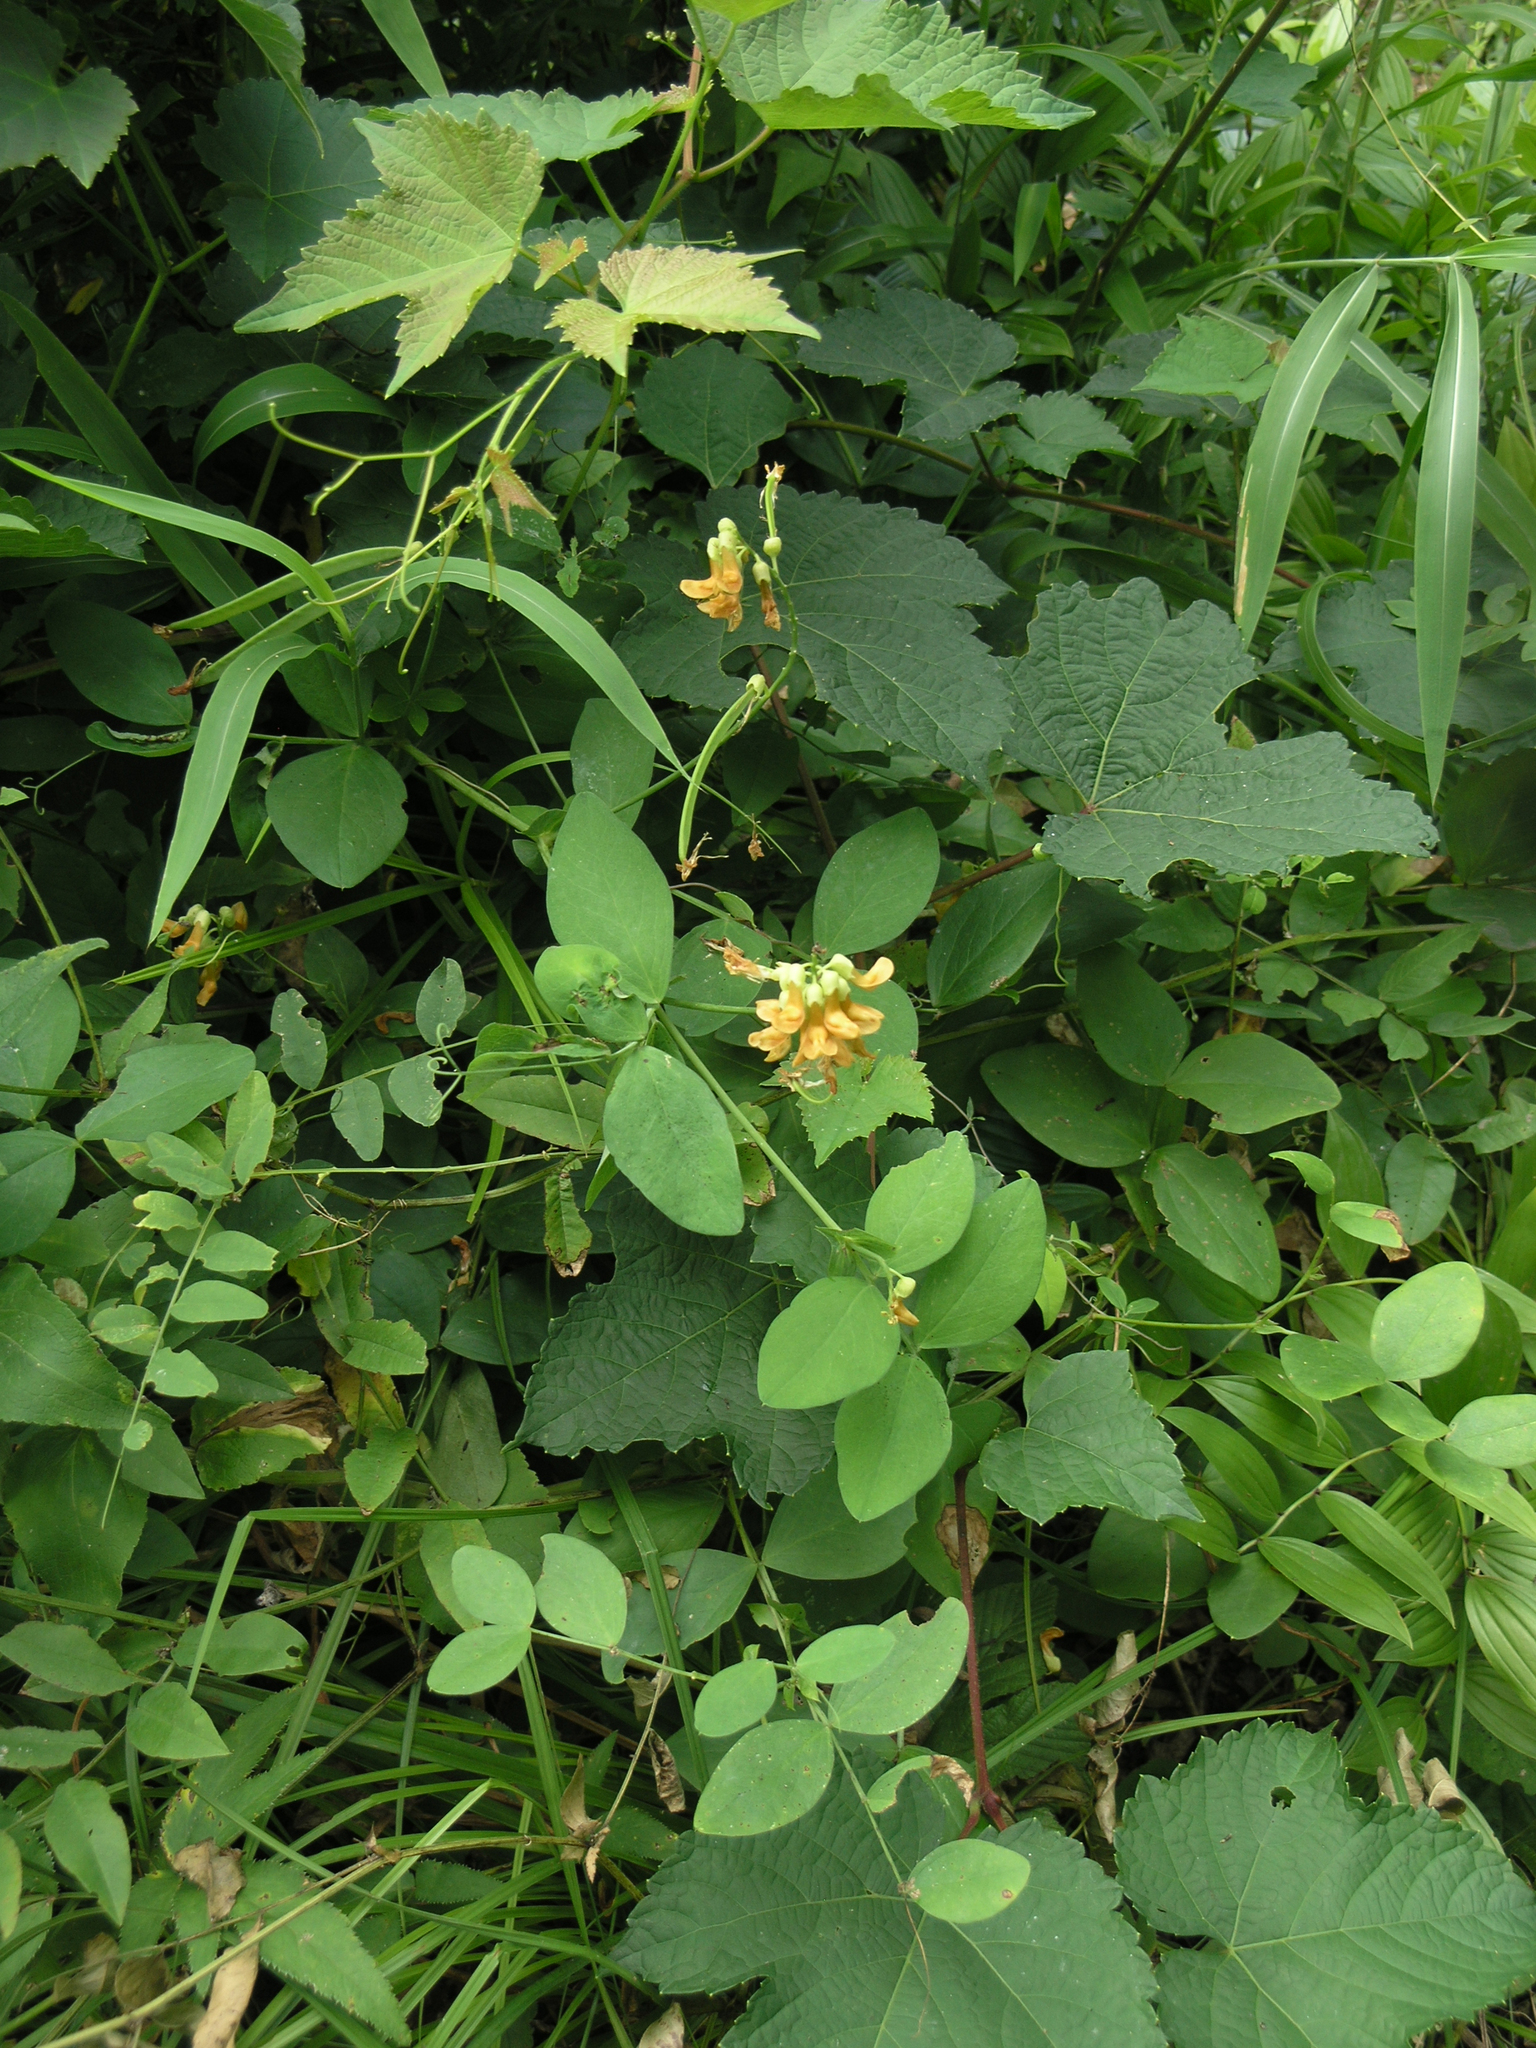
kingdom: Plantae
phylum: Tracheophyta
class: Magnoliopsida
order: Fabales
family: Fabaceae
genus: Lathyrus
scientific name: Lathyrus davidii
